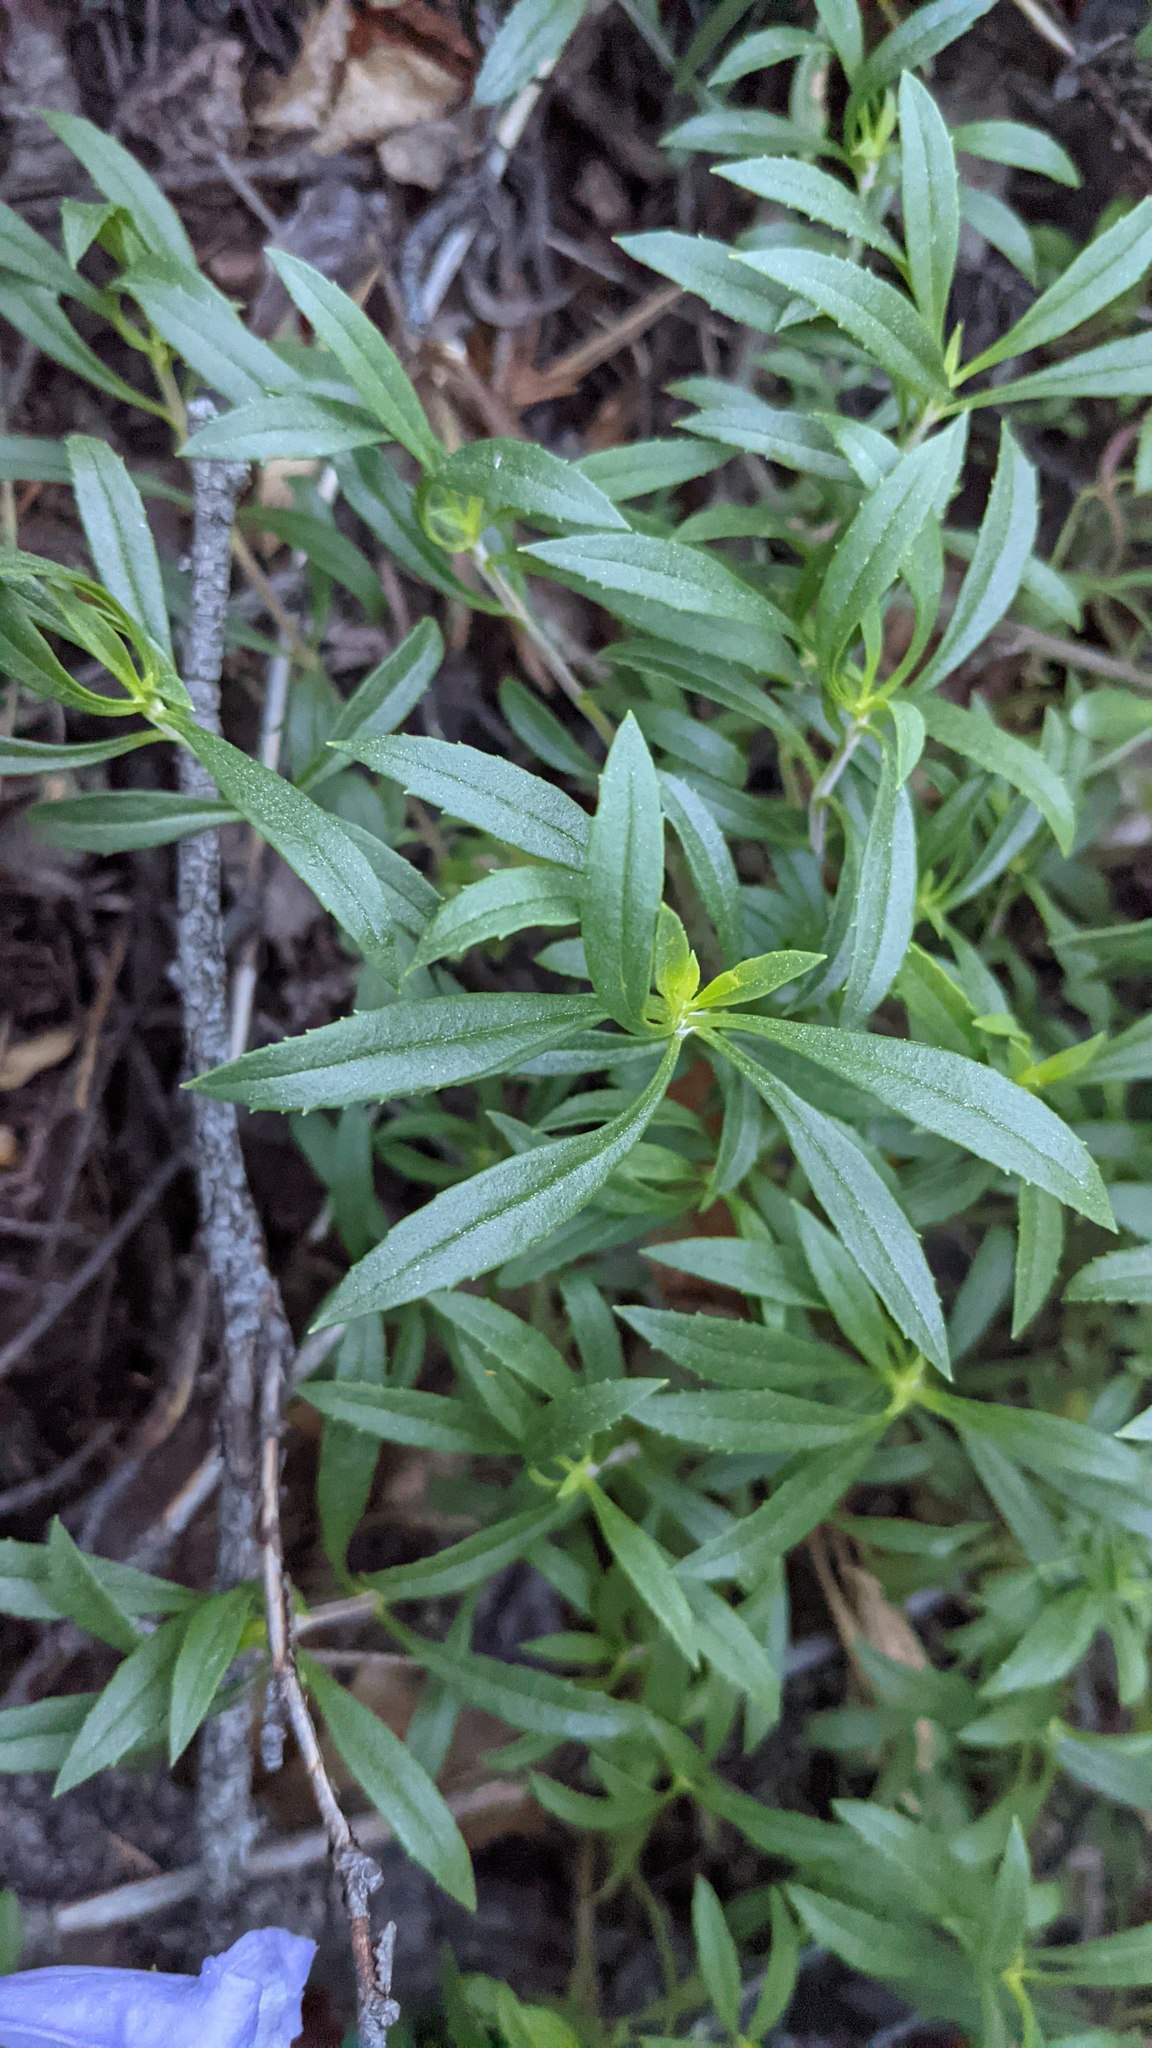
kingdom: Plantae
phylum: Tracheophyta
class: Magnoliopsida
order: Lamiales
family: Plantaginaceae
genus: Penstemon
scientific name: Penstemon fruticosus
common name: Bush penstemon
